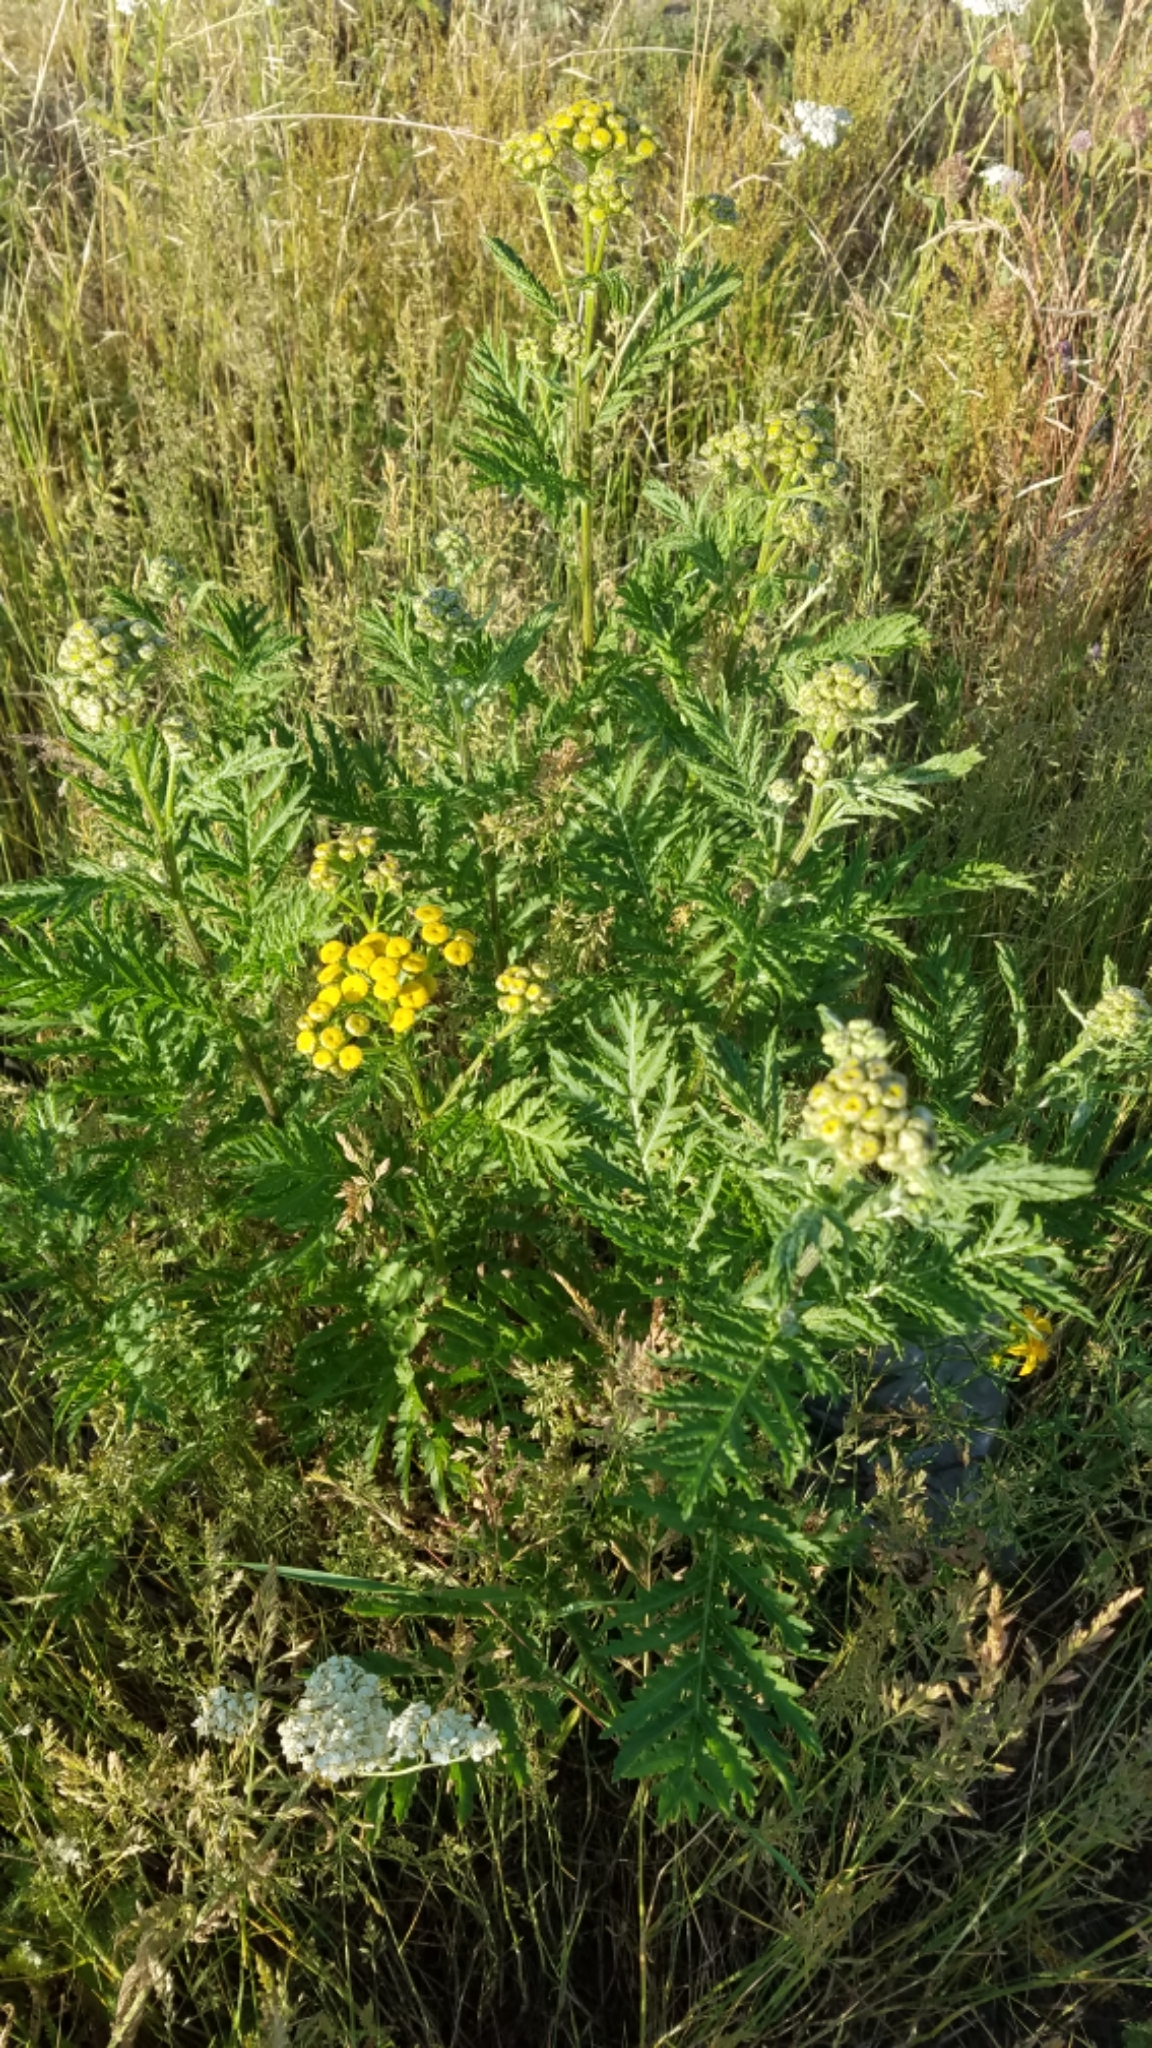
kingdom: Plantae
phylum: Tracheophyta
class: Magnoliopsida
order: Asterales
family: Asteraceae
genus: Tanacetum
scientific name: Tanacetum vulgare
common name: Common tansy
